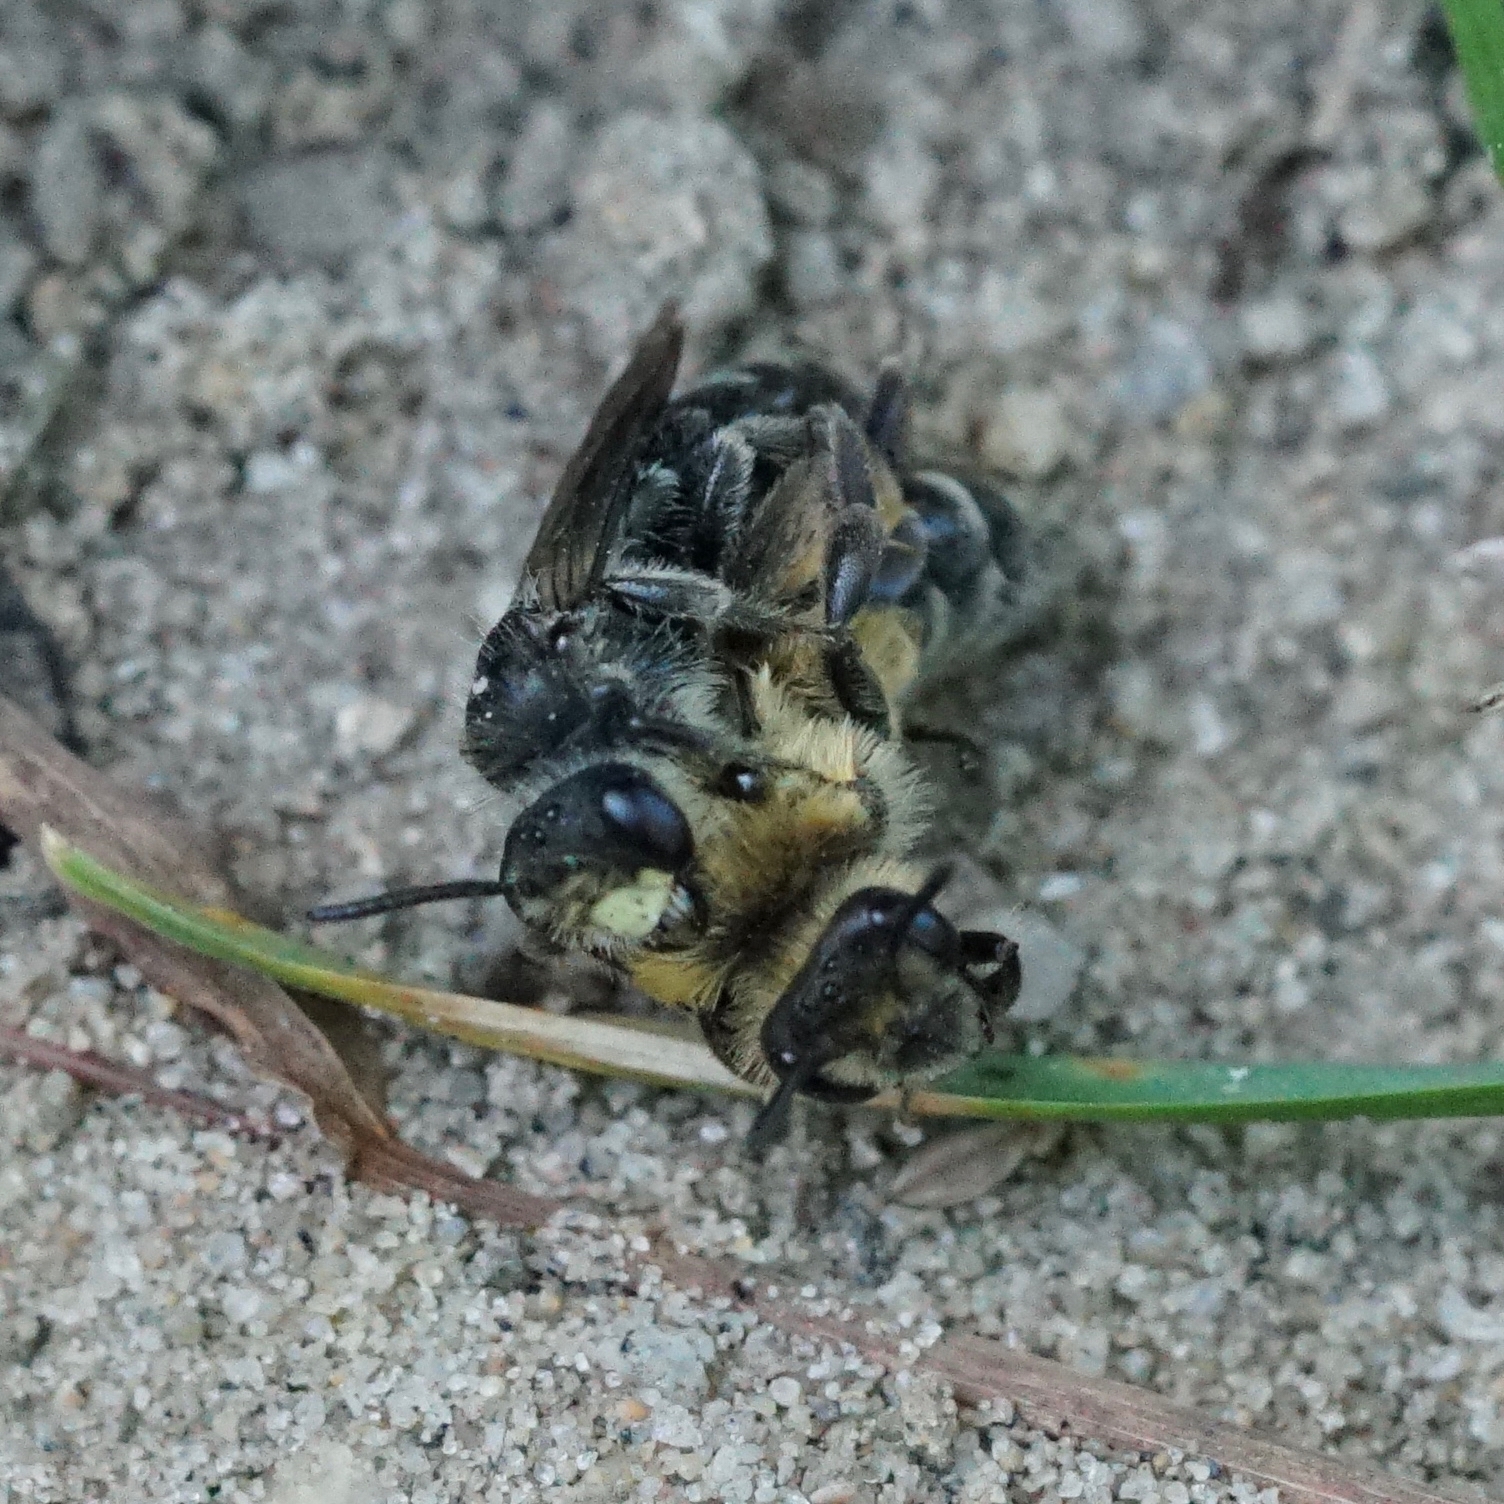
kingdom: Animalia
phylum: Arthropoda
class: Insecta
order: Hymenoptera
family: Andrenidae
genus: Andrena
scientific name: Andrena asteris
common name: Aster mining bee
